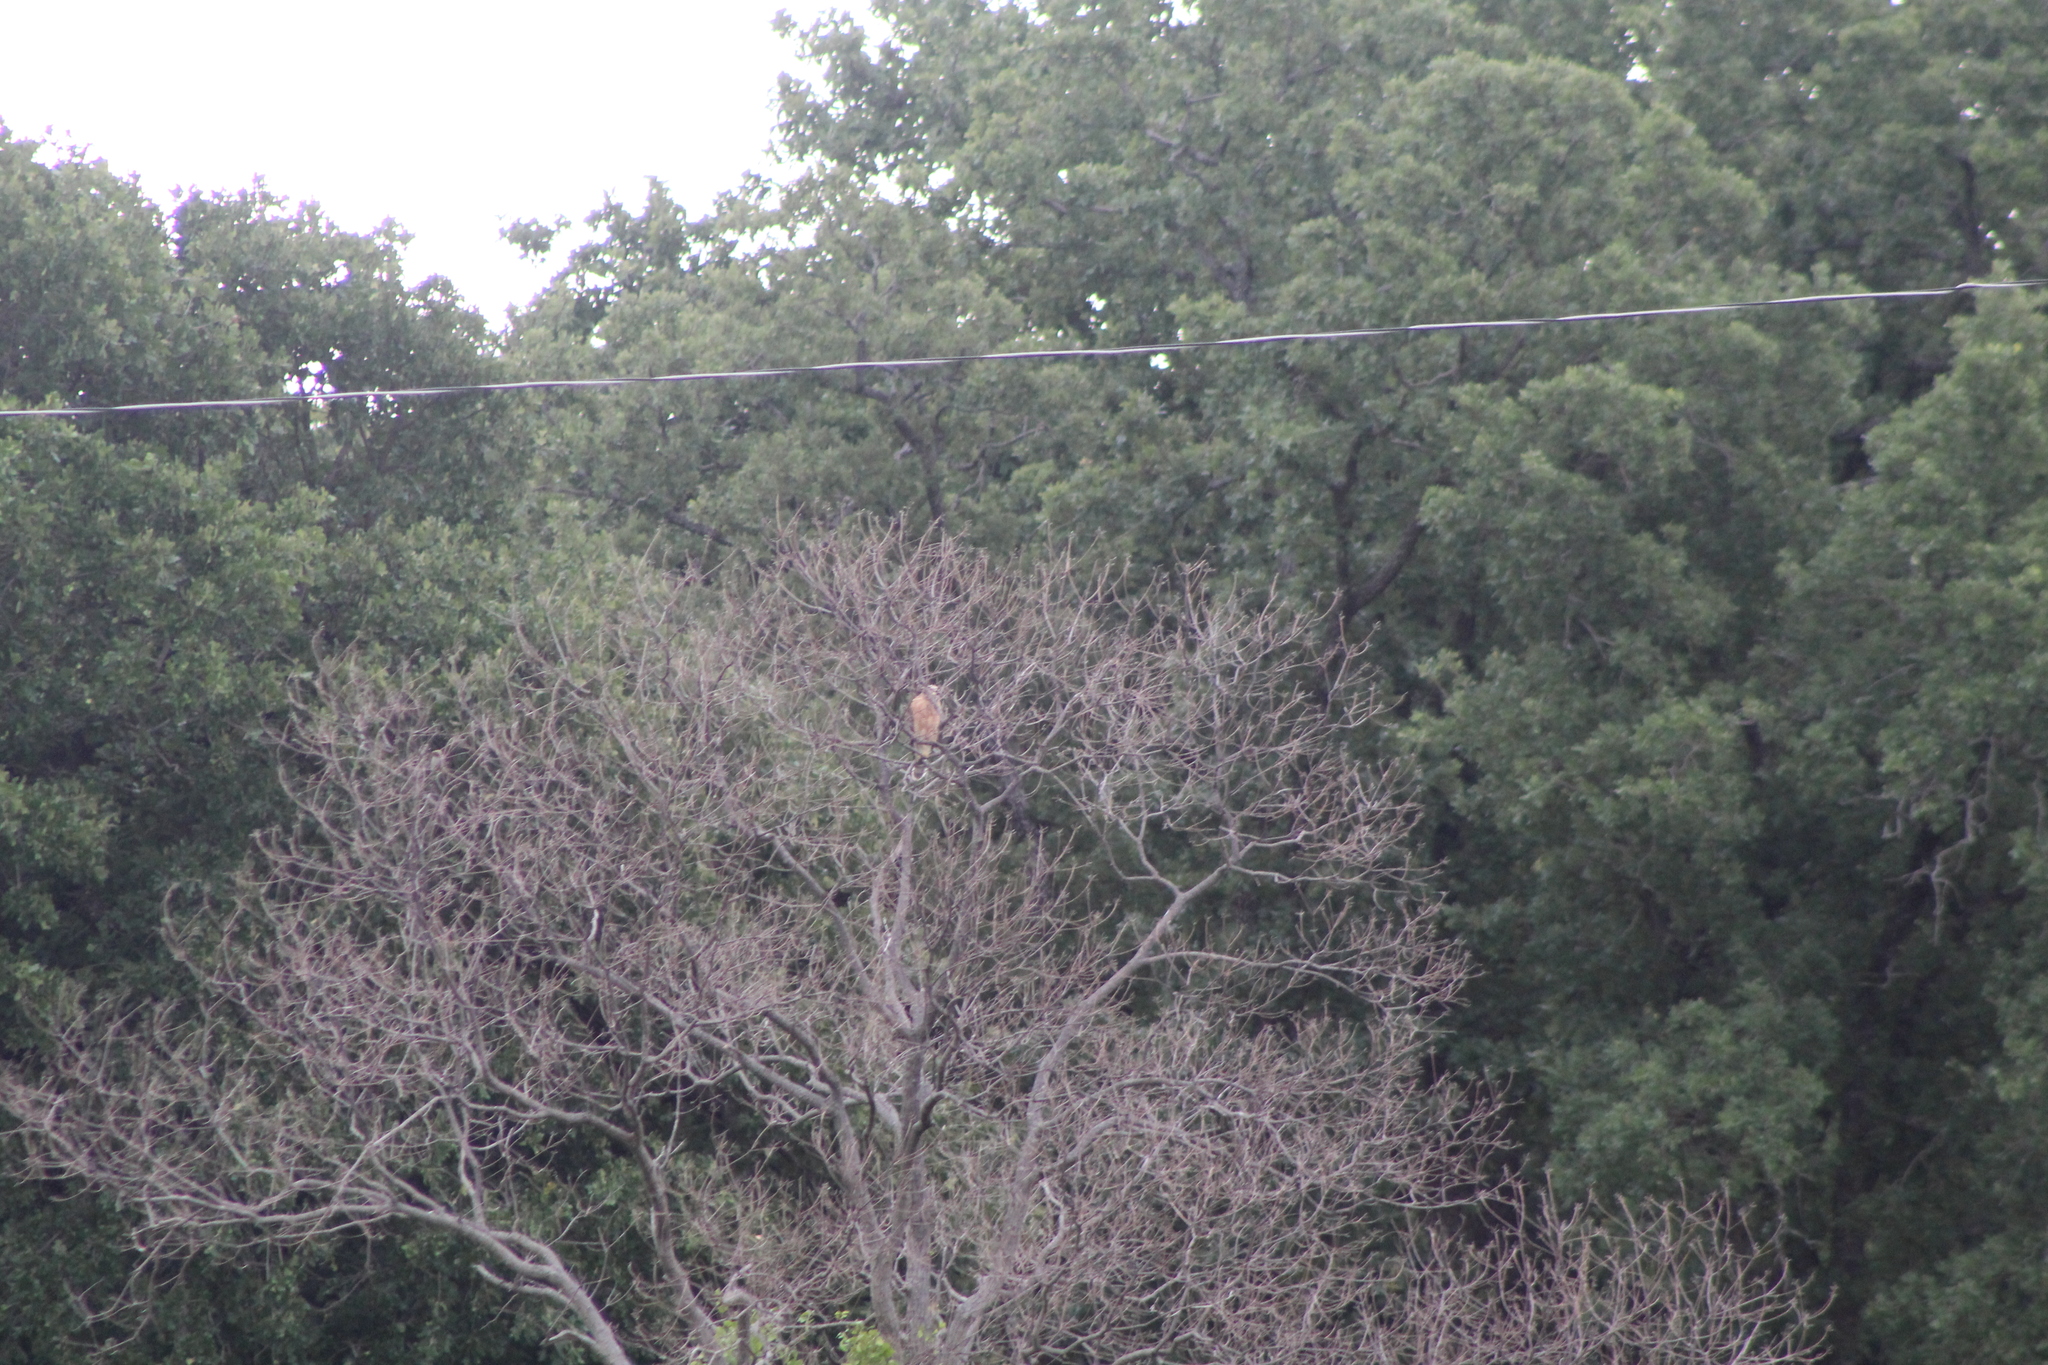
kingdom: Animalia
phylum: Chordata
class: Aves
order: Accipitriformes
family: Accipitridae
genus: Buteo
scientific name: Buteo lineatus
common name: Red-shouldered hawk
